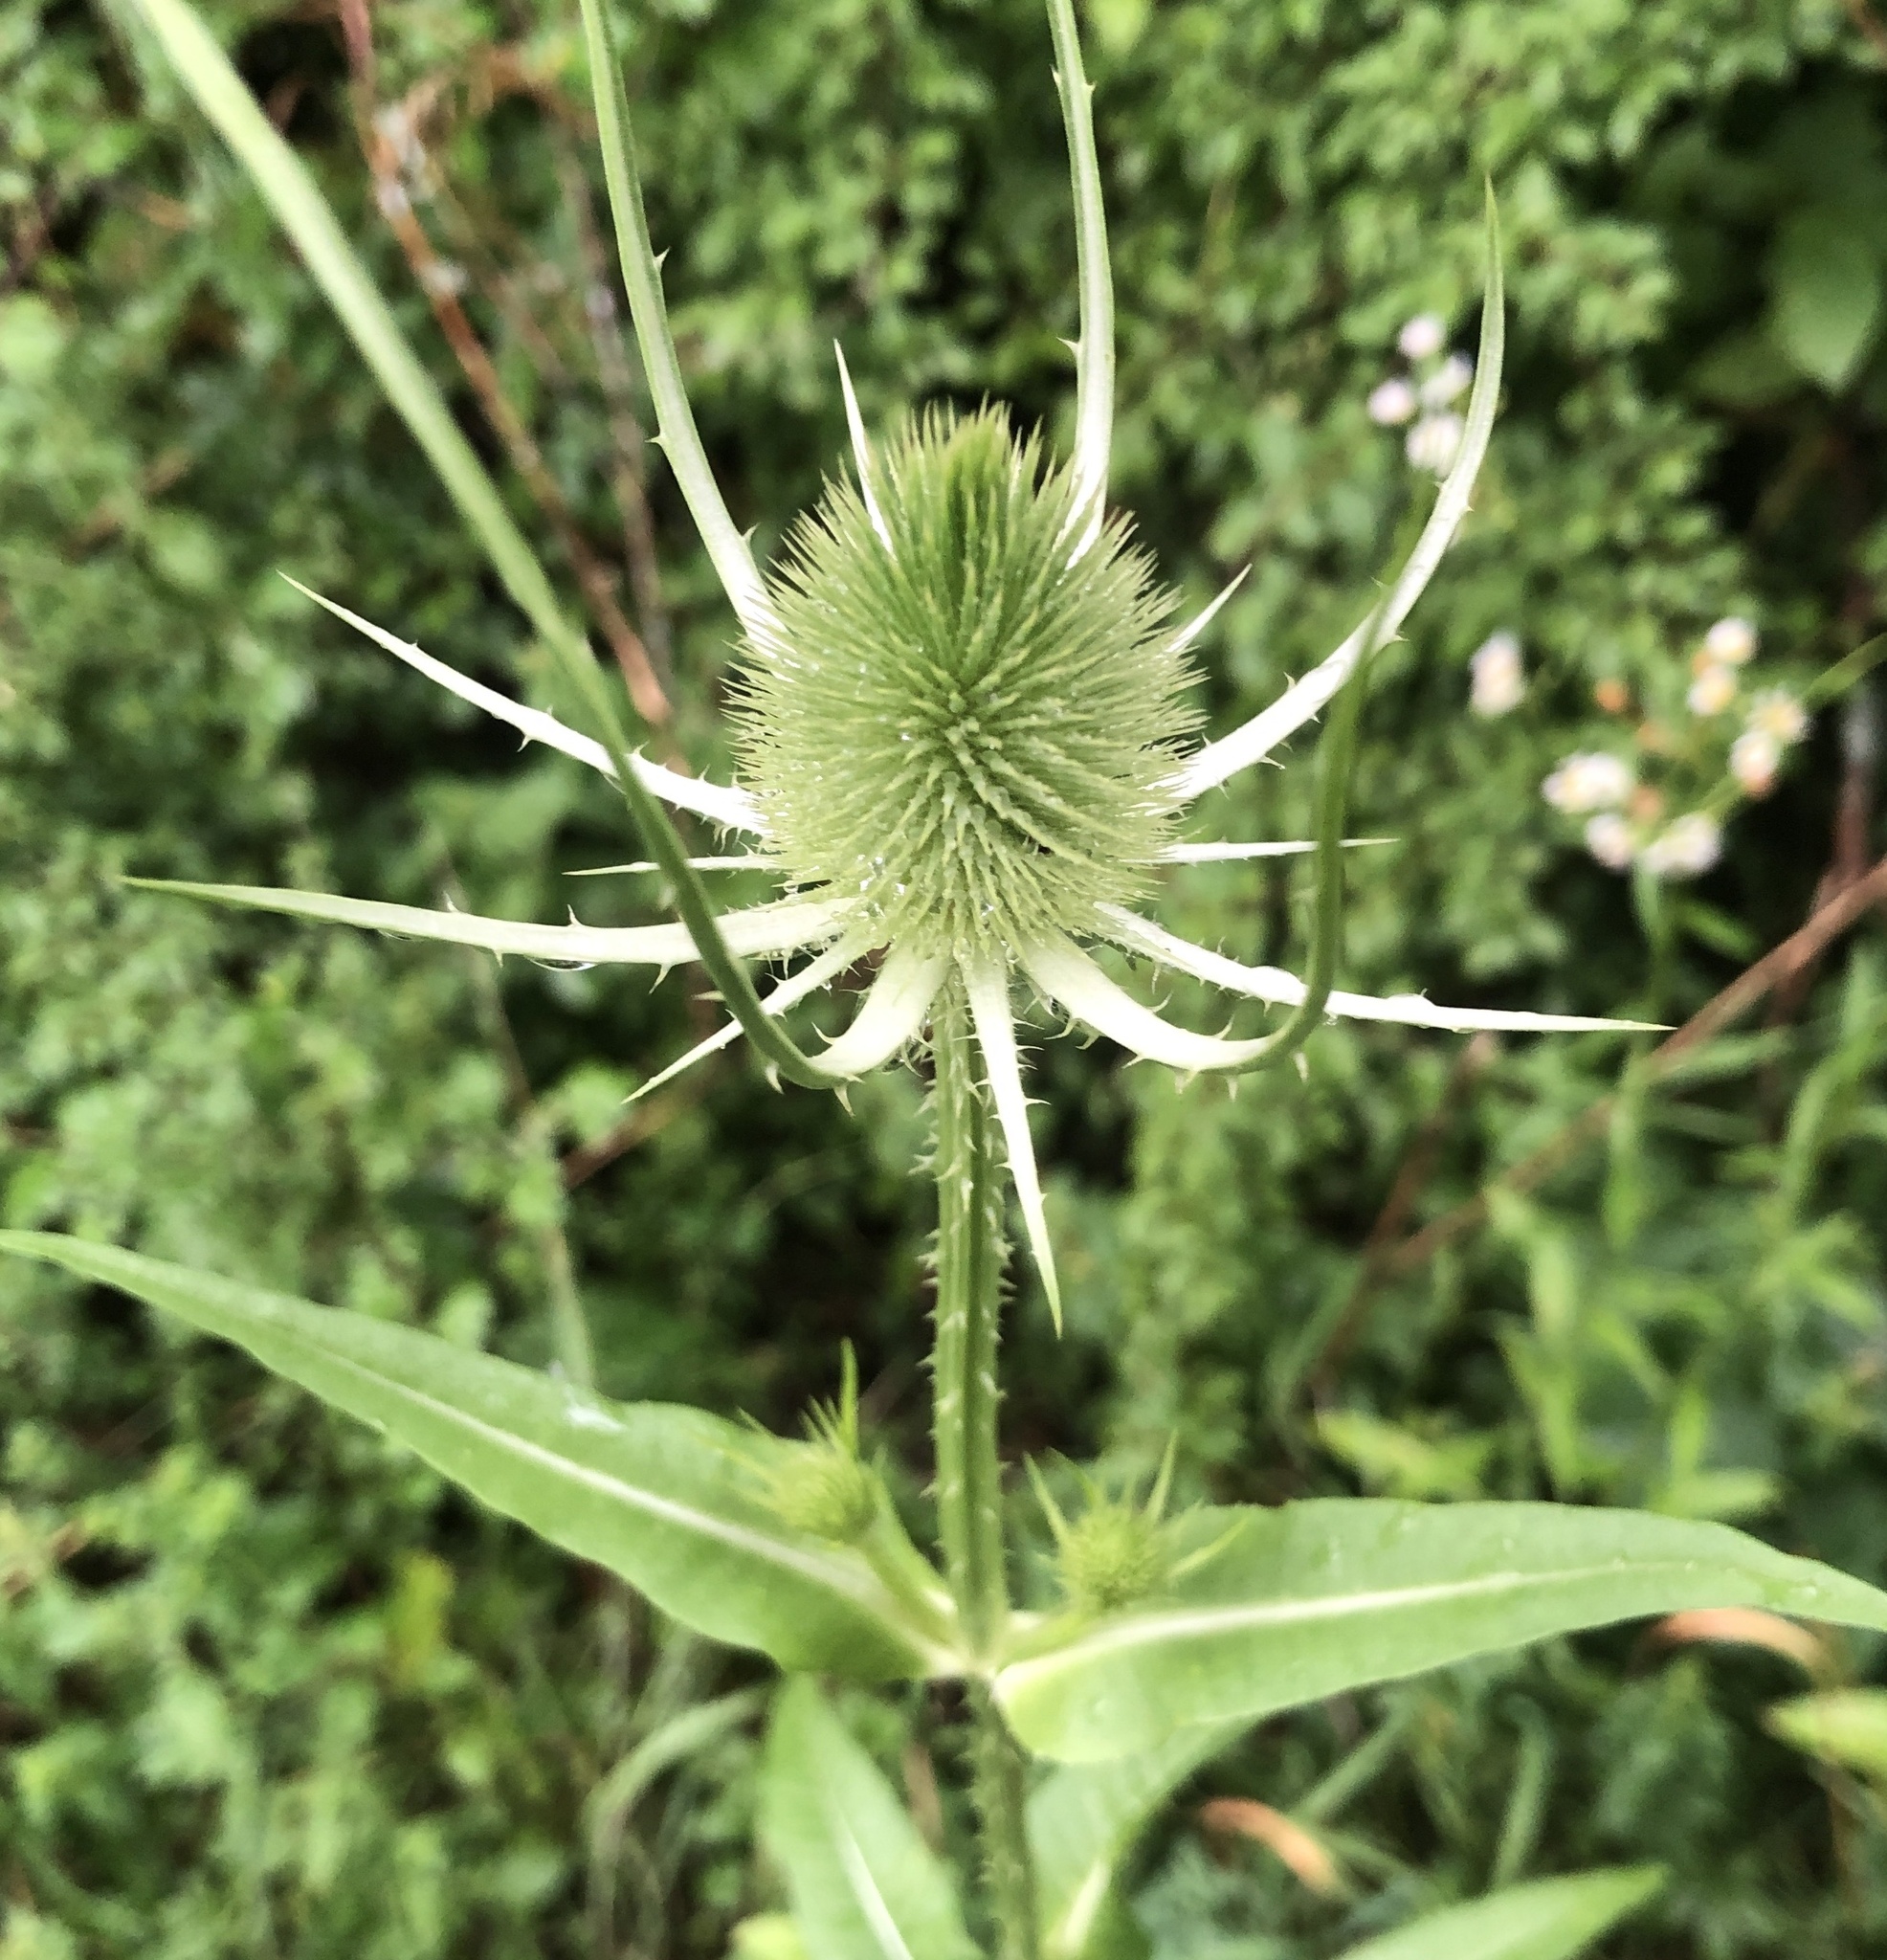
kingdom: Plantae
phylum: Tracheophyta
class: Magnoliopsida
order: Dipsacales
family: Caprifoliaceae
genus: Dipsacus
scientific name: Dipsacus fullonum
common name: Teasel
